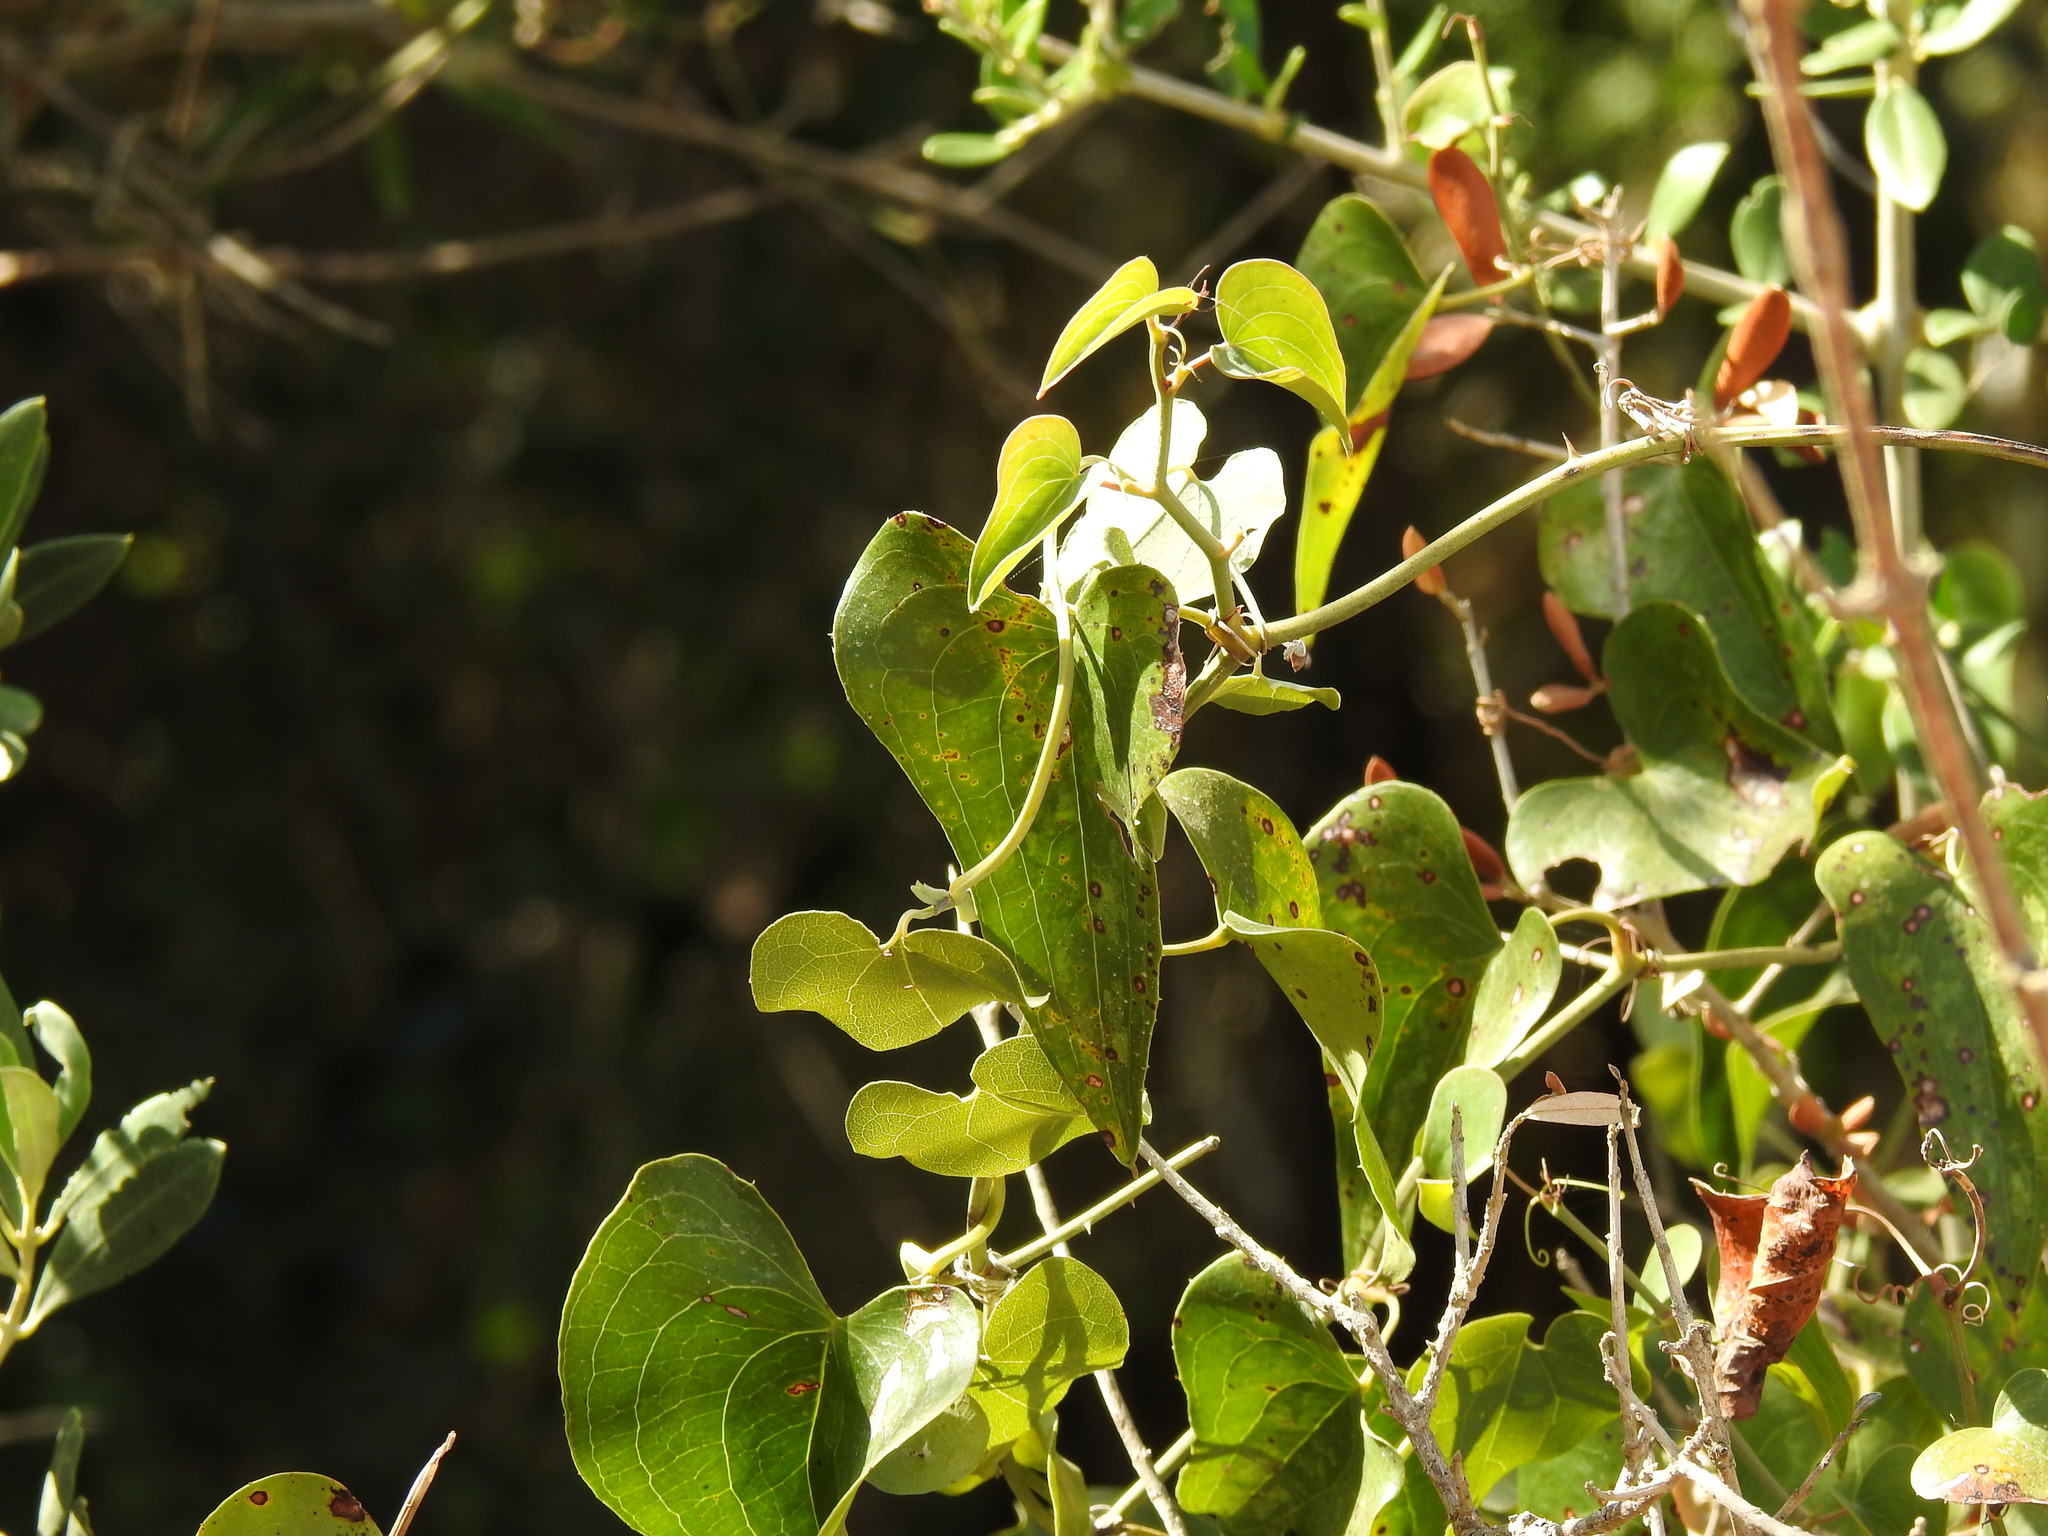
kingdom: Plantae
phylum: Tracheophyta
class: Liliopsida
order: Liliales
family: Smilacaceae
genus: Smilax
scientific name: Smilax aspera
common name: Common smilax
